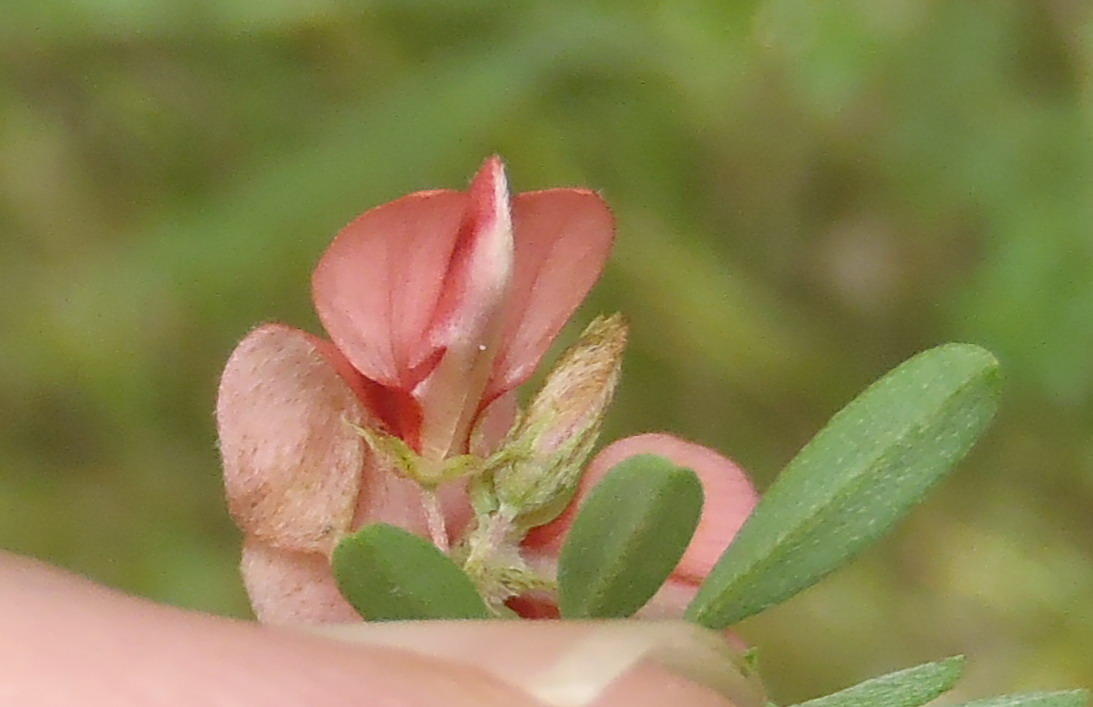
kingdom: Plantae
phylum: Tracheophyta
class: Magnoliopsida
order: Fabales
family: Fabaceae
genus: Indigofera
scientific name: Indigofera stricta
